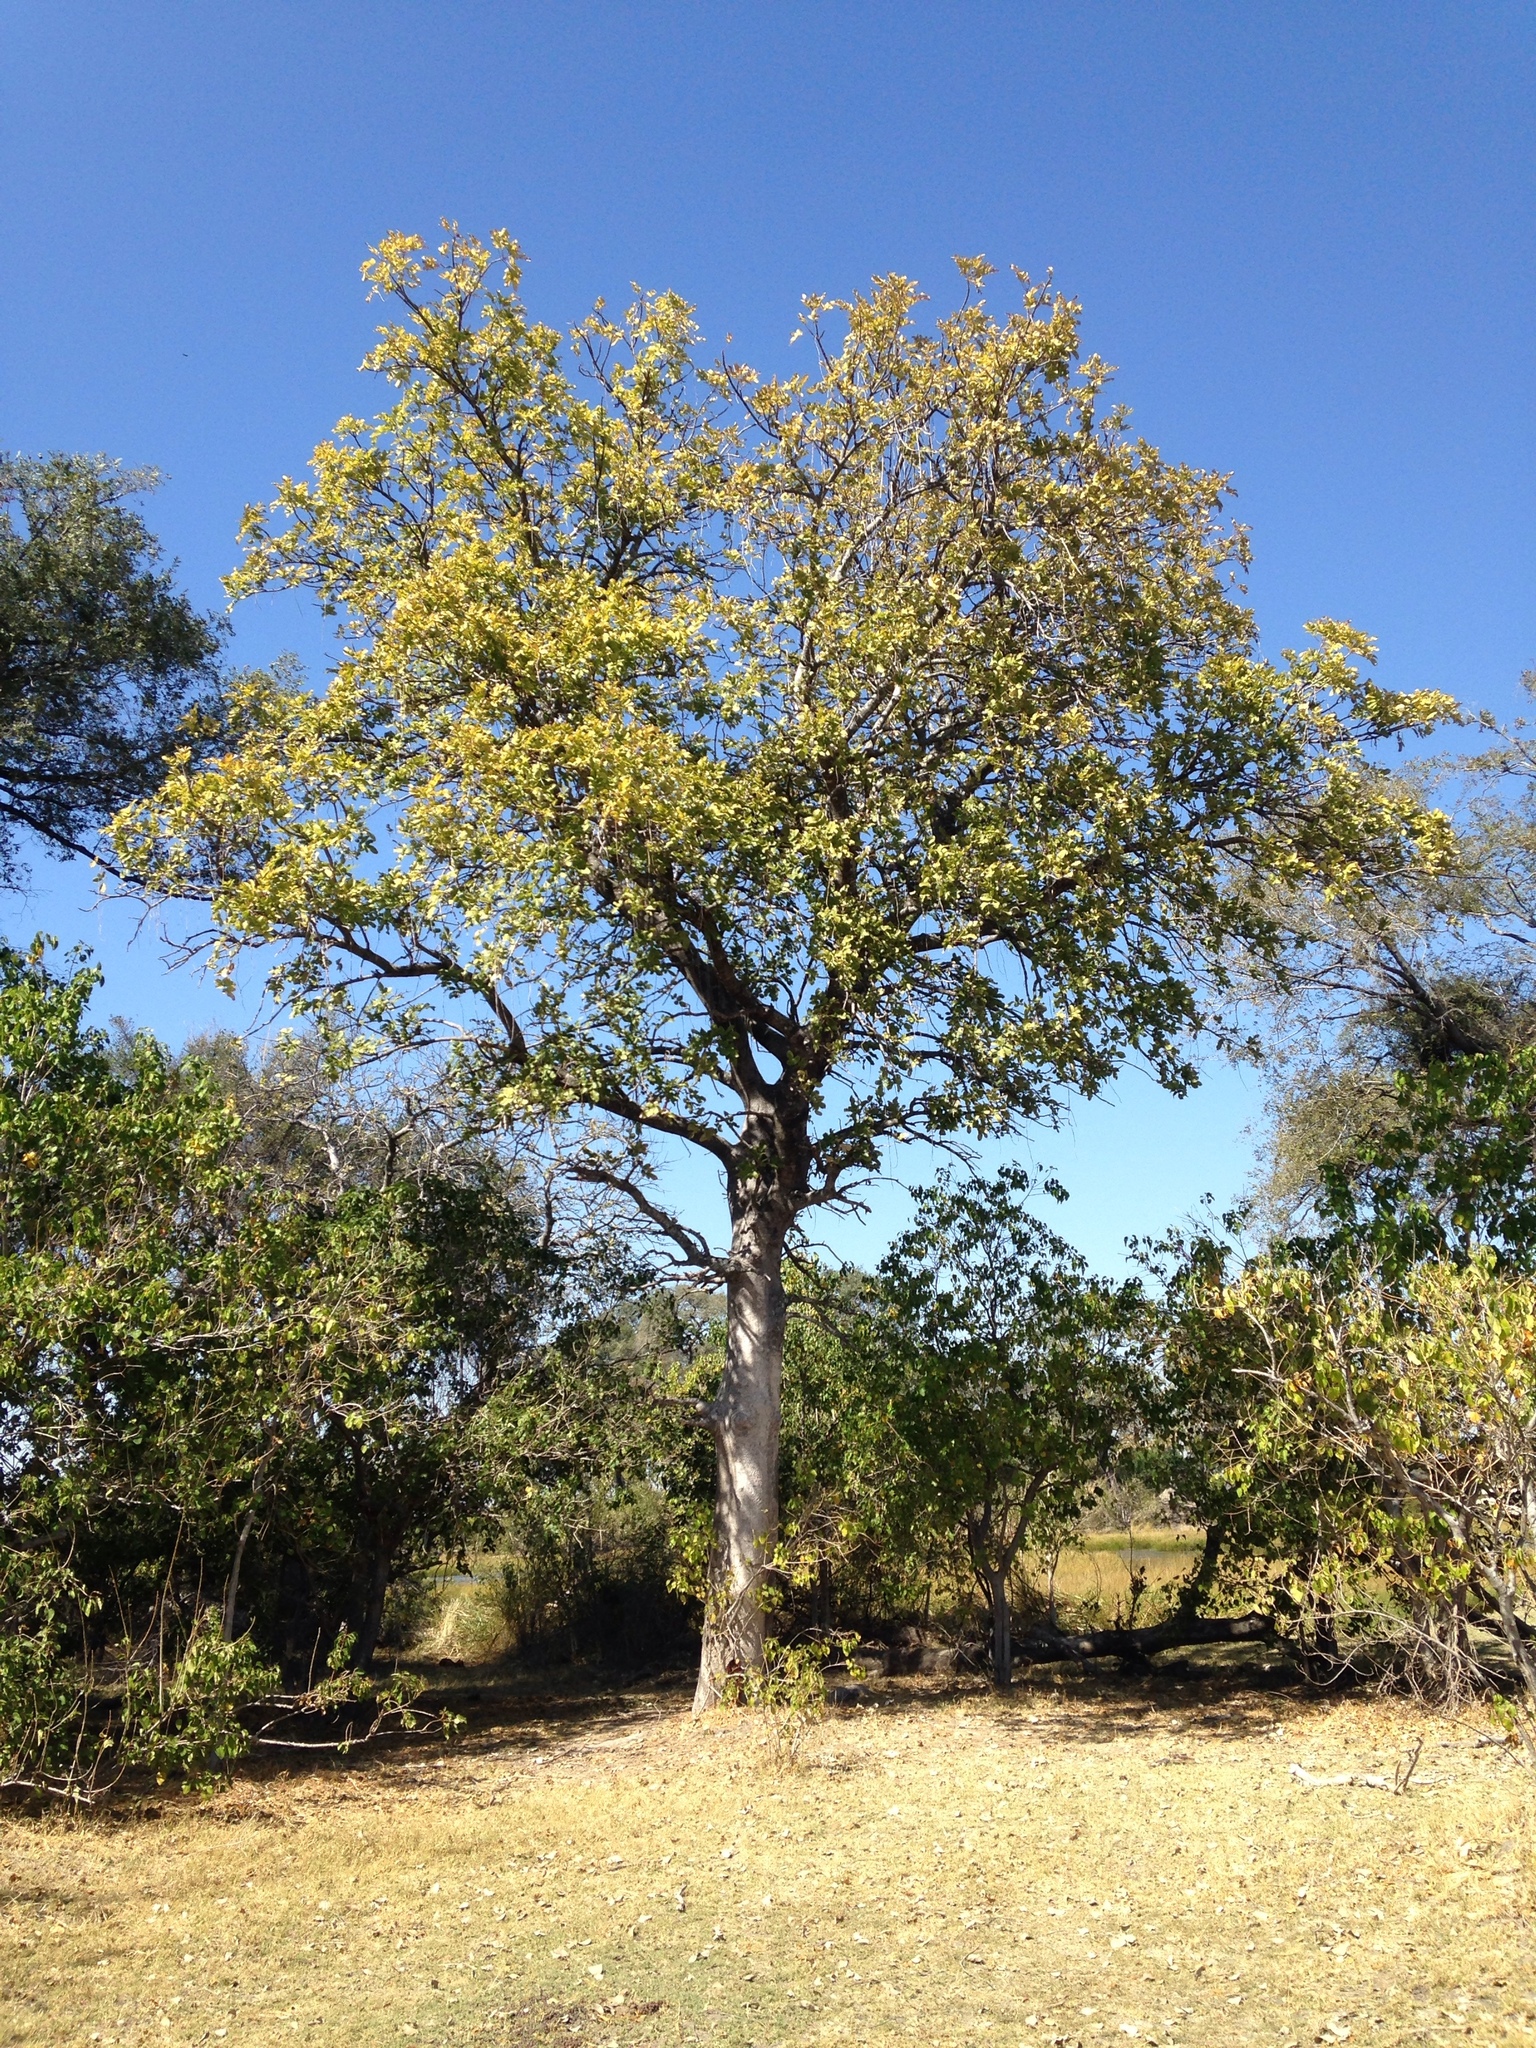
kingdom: Plantae
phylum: Tracheophyta
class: Magnoliopsida
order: Lamiales
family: Bignoniaceae
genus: Kigelia
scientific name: Kigelia africana
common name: Sausage tree
